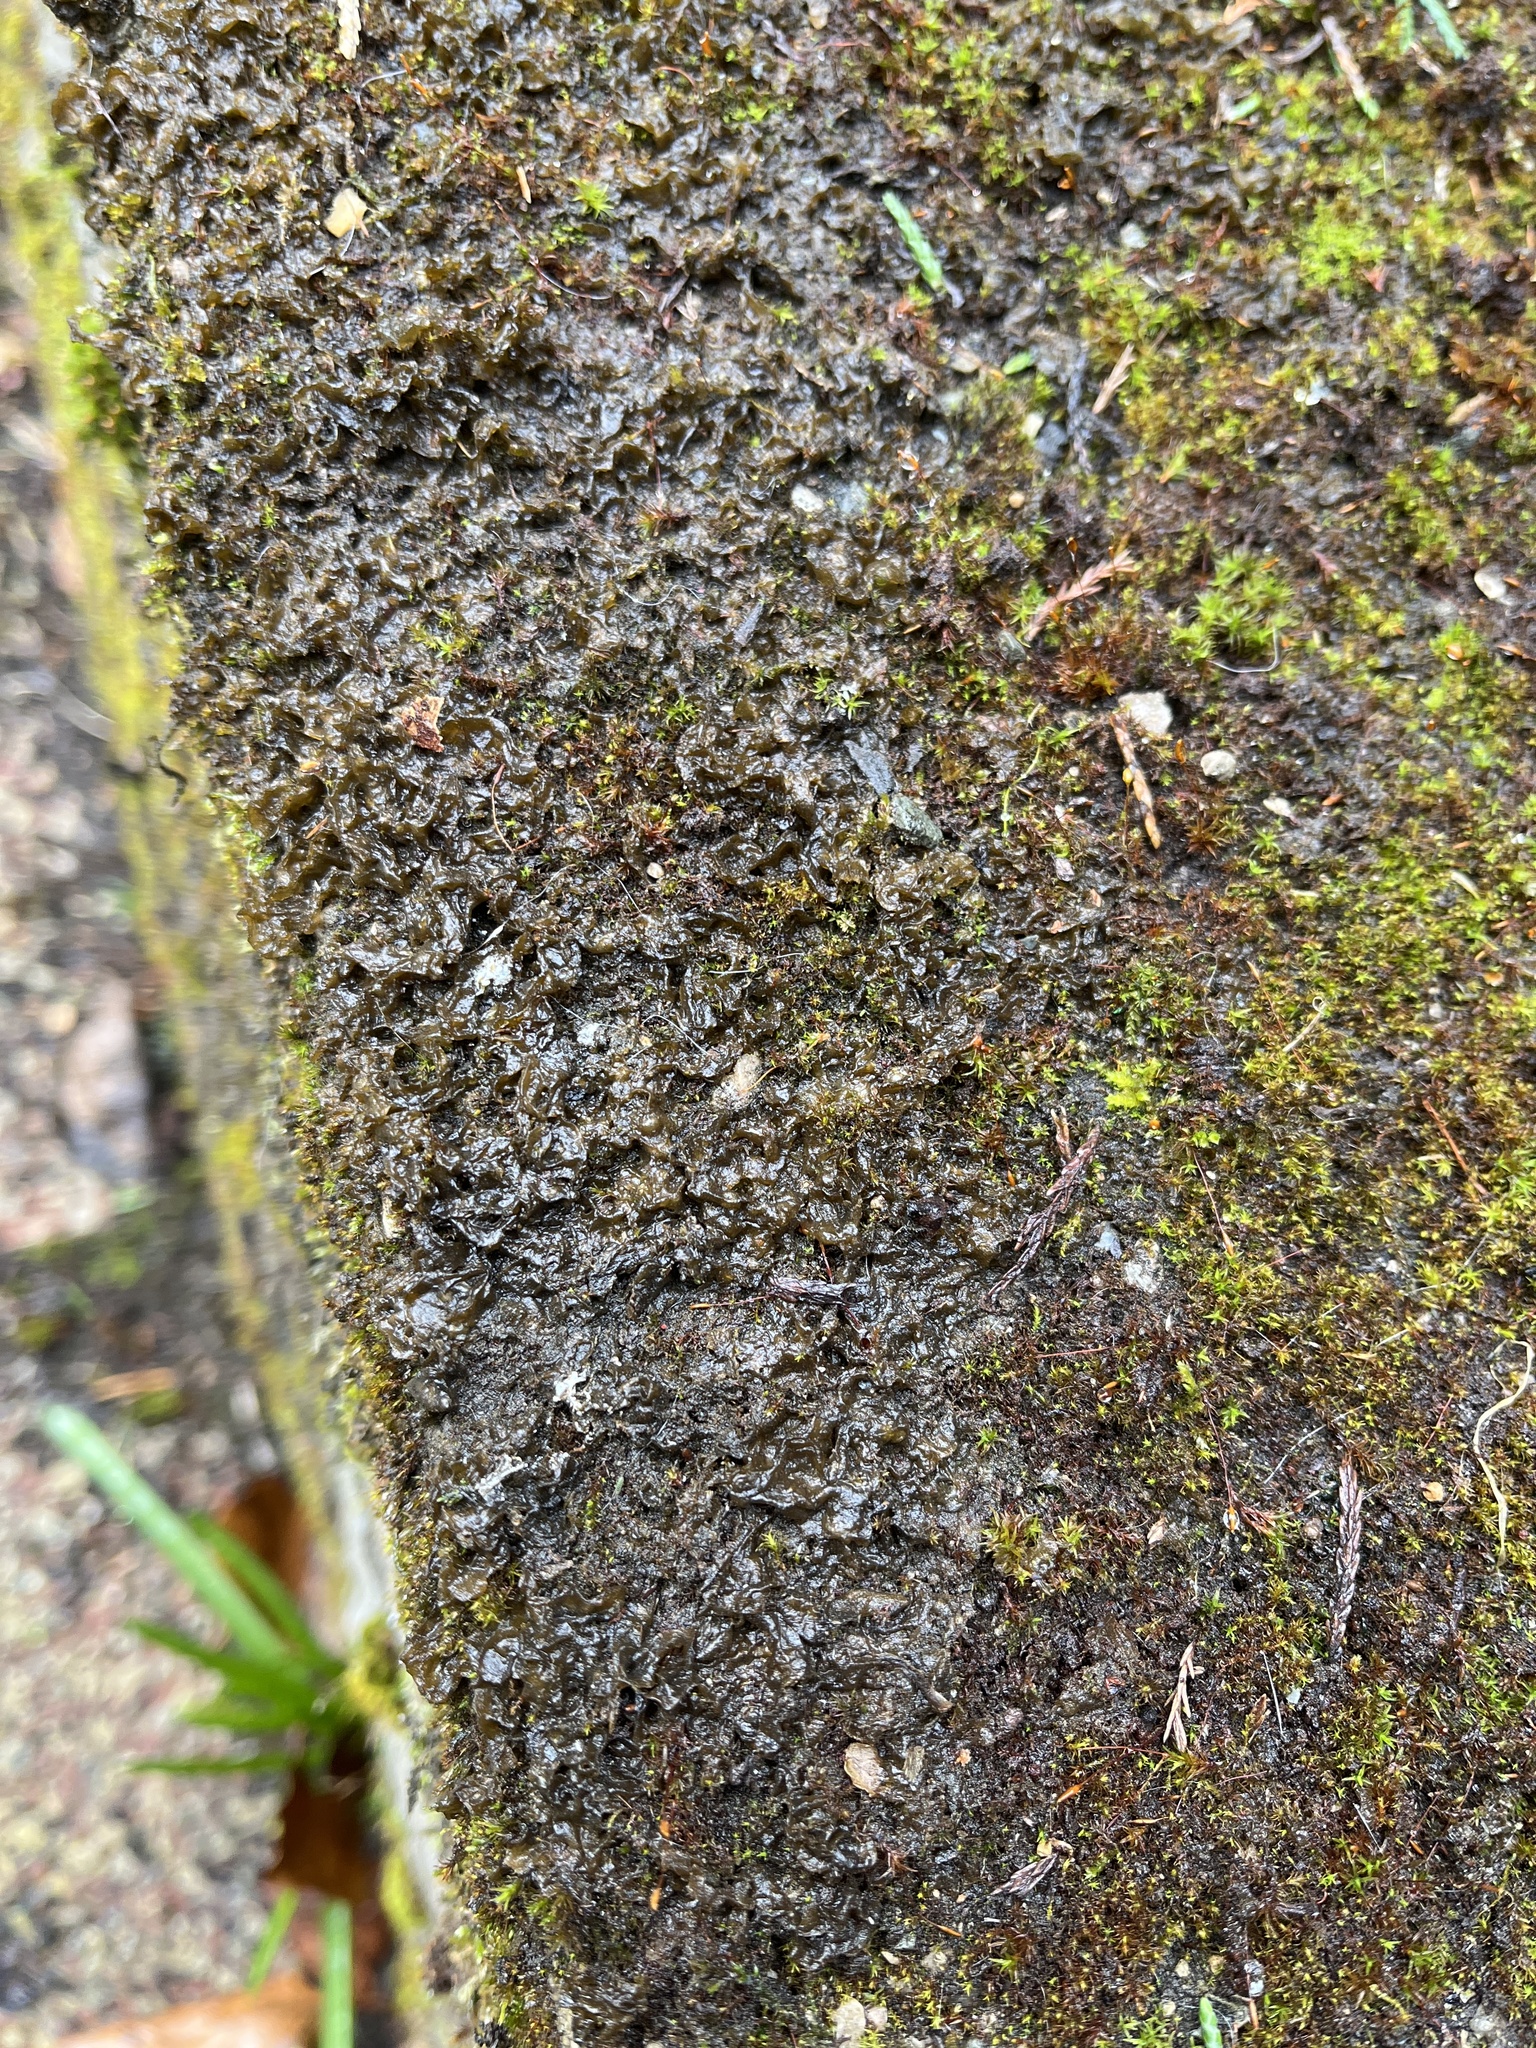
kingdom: Bacteria
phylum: Cyanobacteria
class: Cyanobacteriia
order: Cyanobacteriales
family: Nostocaceae
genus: Nostoc
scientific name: Nostoc commune
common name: Star jelly
